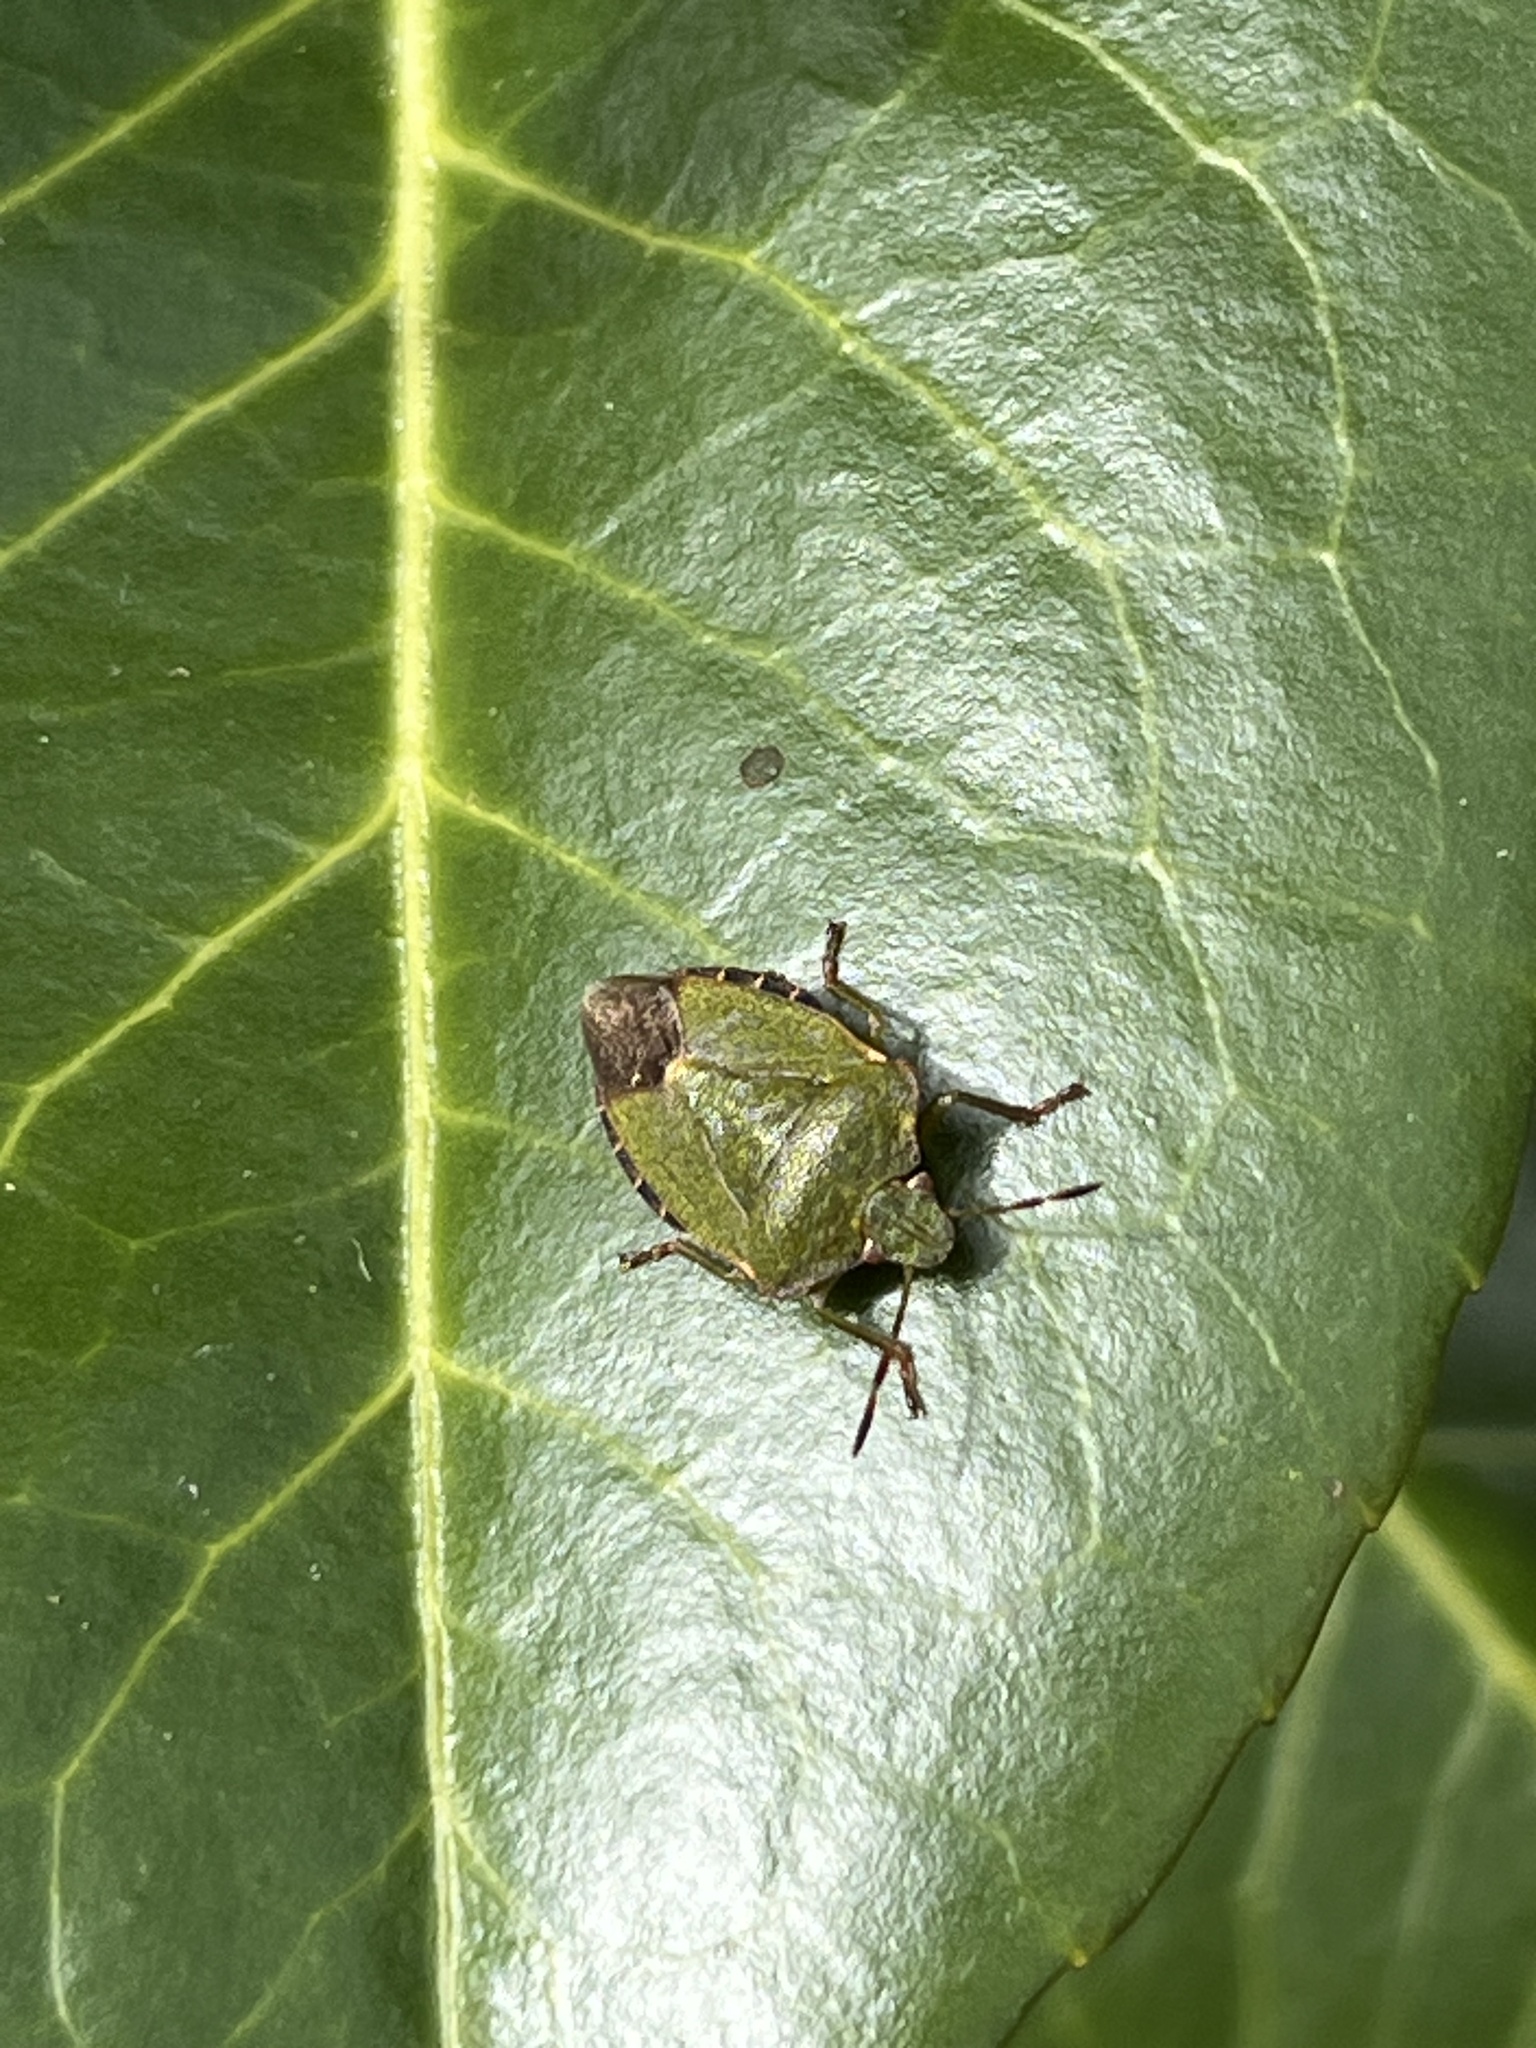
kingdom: Animalia
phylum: Arthropoda
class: Insecta
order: Hemiptera
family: Pentatomidae
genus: Palomena
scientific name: Palomena prasina
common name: Green shieldbug
